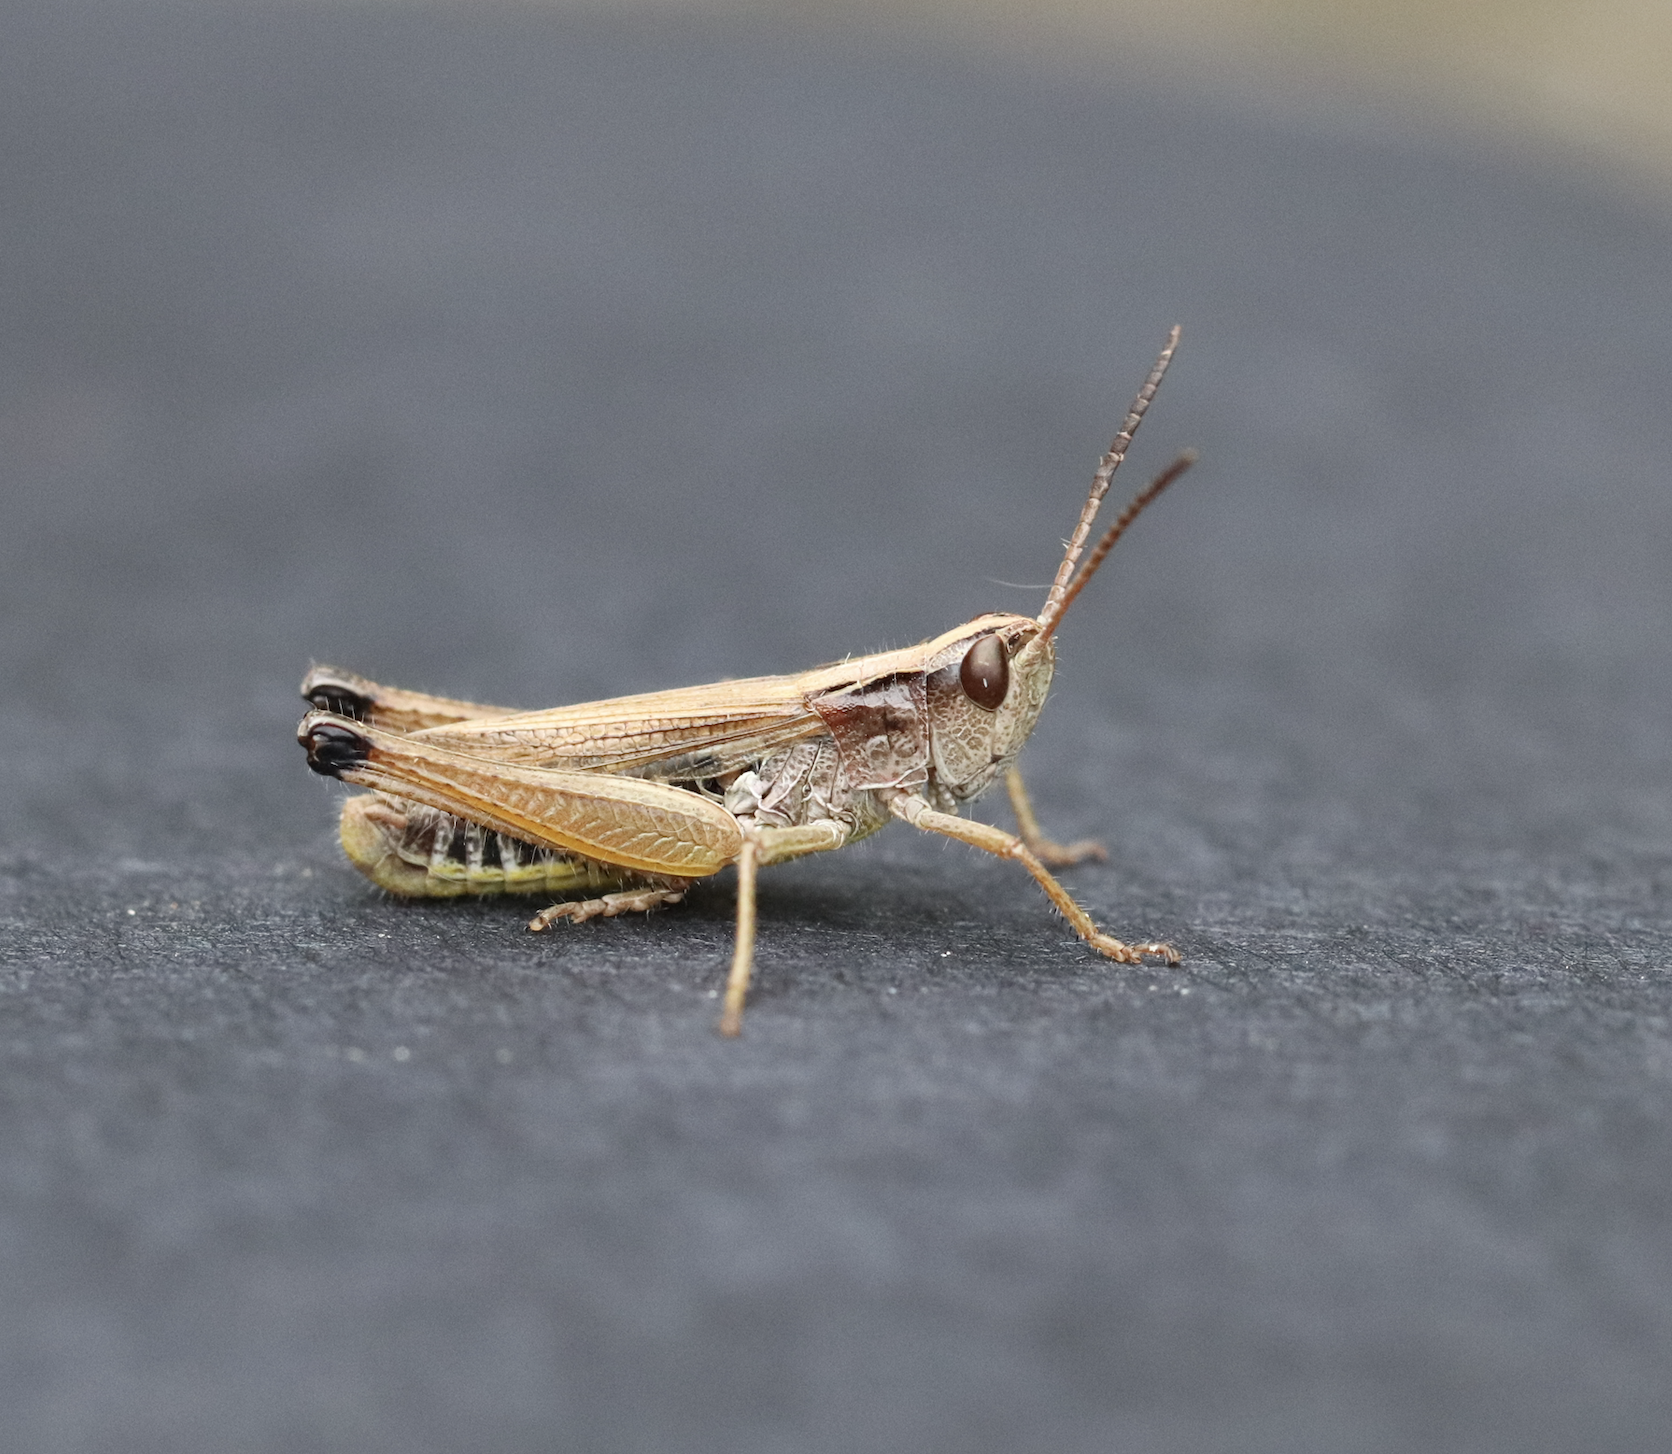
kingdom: Animalia
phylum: Arthropoda
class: Insecta
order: Orthoptera
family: Acrididae
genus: Pseudochorthippus
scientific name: Pseudochorthippus curtipennis
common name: Marsh meadow grasshopper
